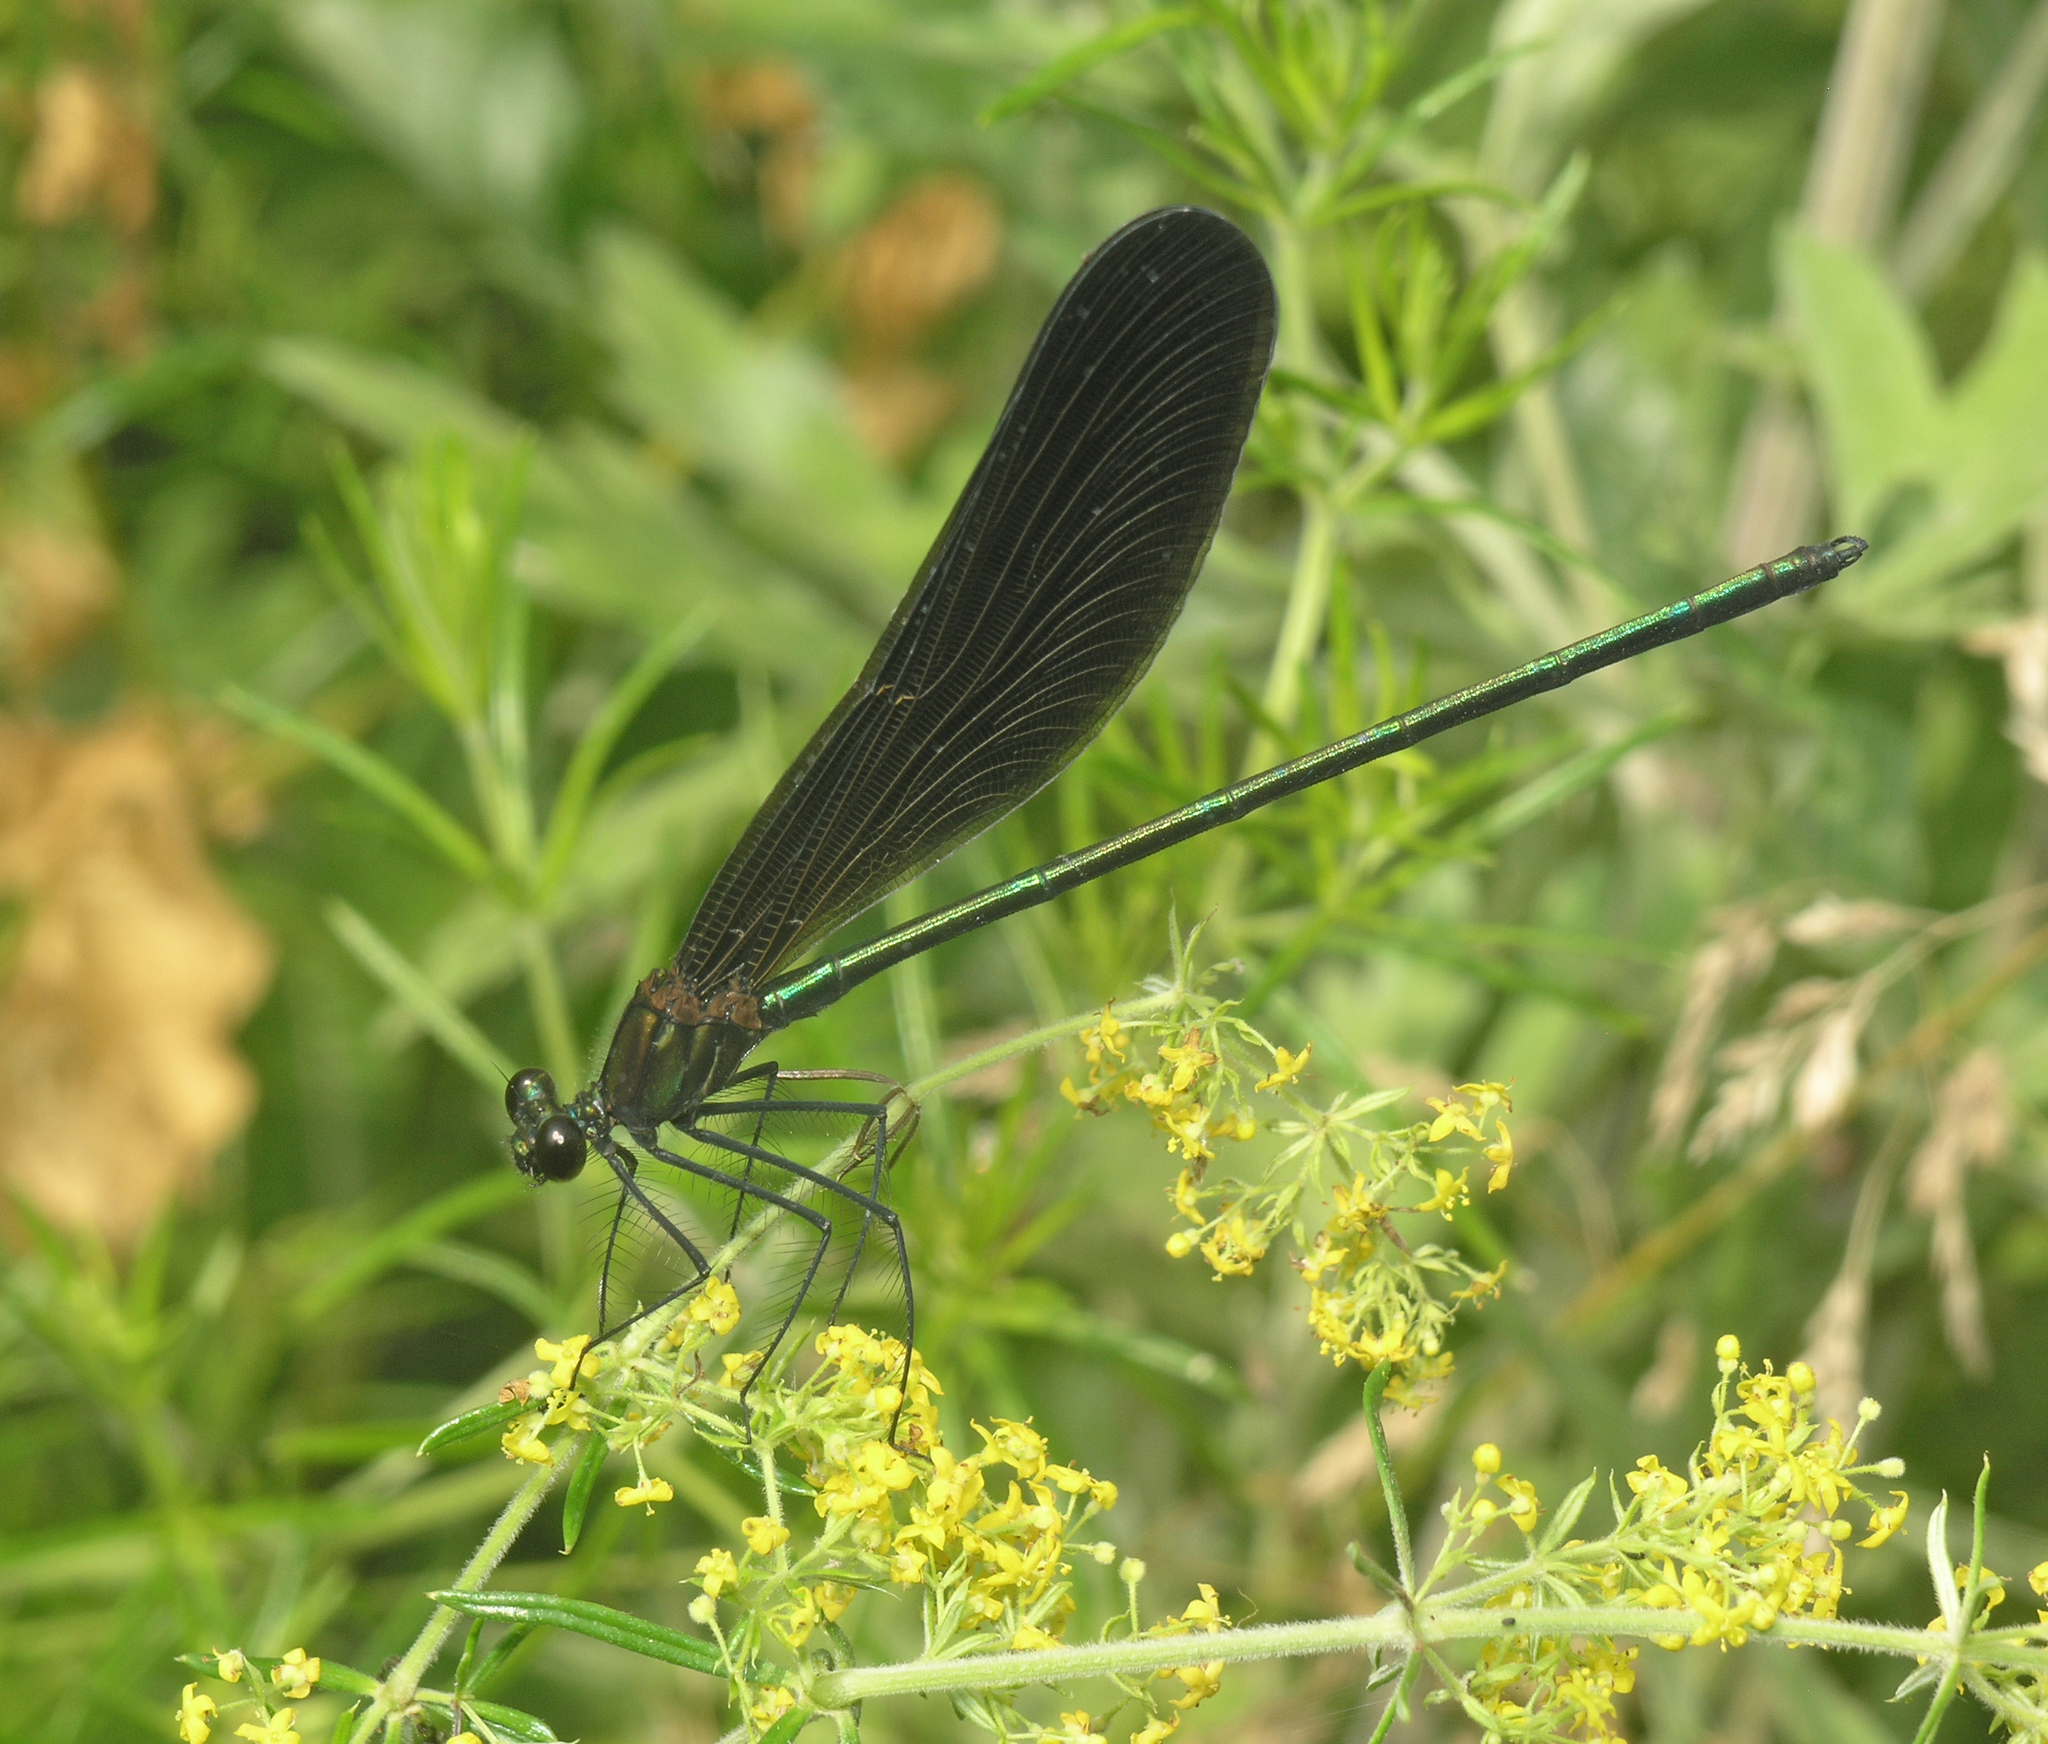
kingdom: Animalia
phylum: Arthropoda
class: Insecta
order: Odonata
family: Calopterygidae
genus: Atrocalopteryx
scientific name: Atrocalopteryx atrata
